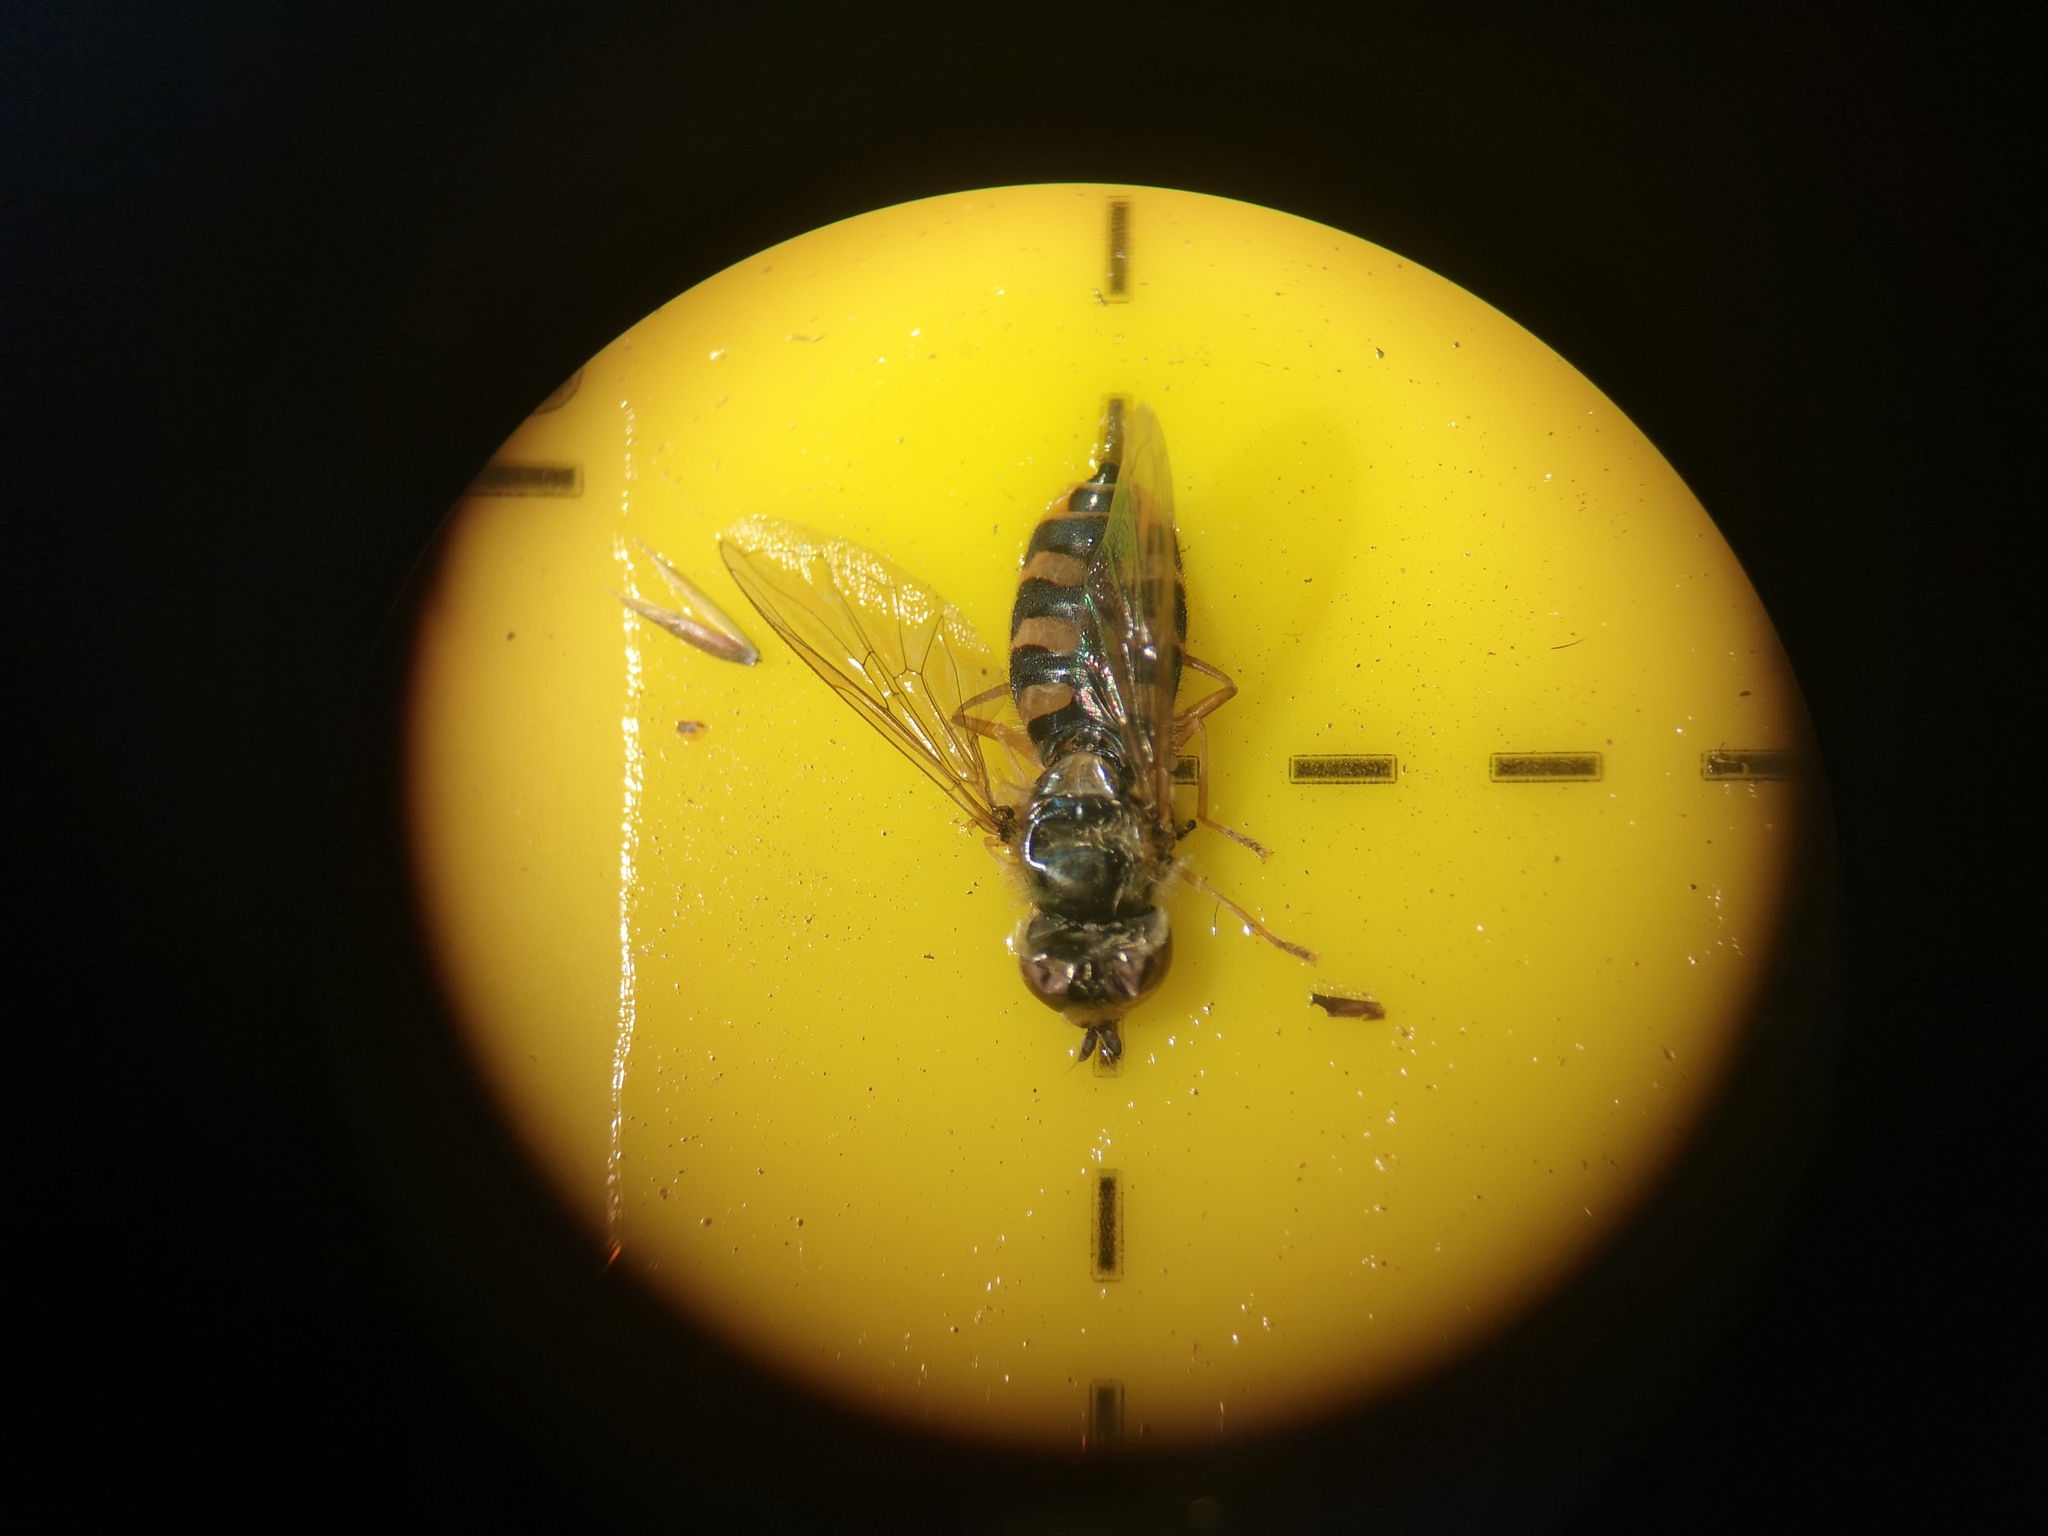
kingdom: Animalia
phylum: Arthropoda
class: Insecta
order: Diptera
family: Syrphidae
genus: Eupeodes
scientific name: Eupeodes corollae
